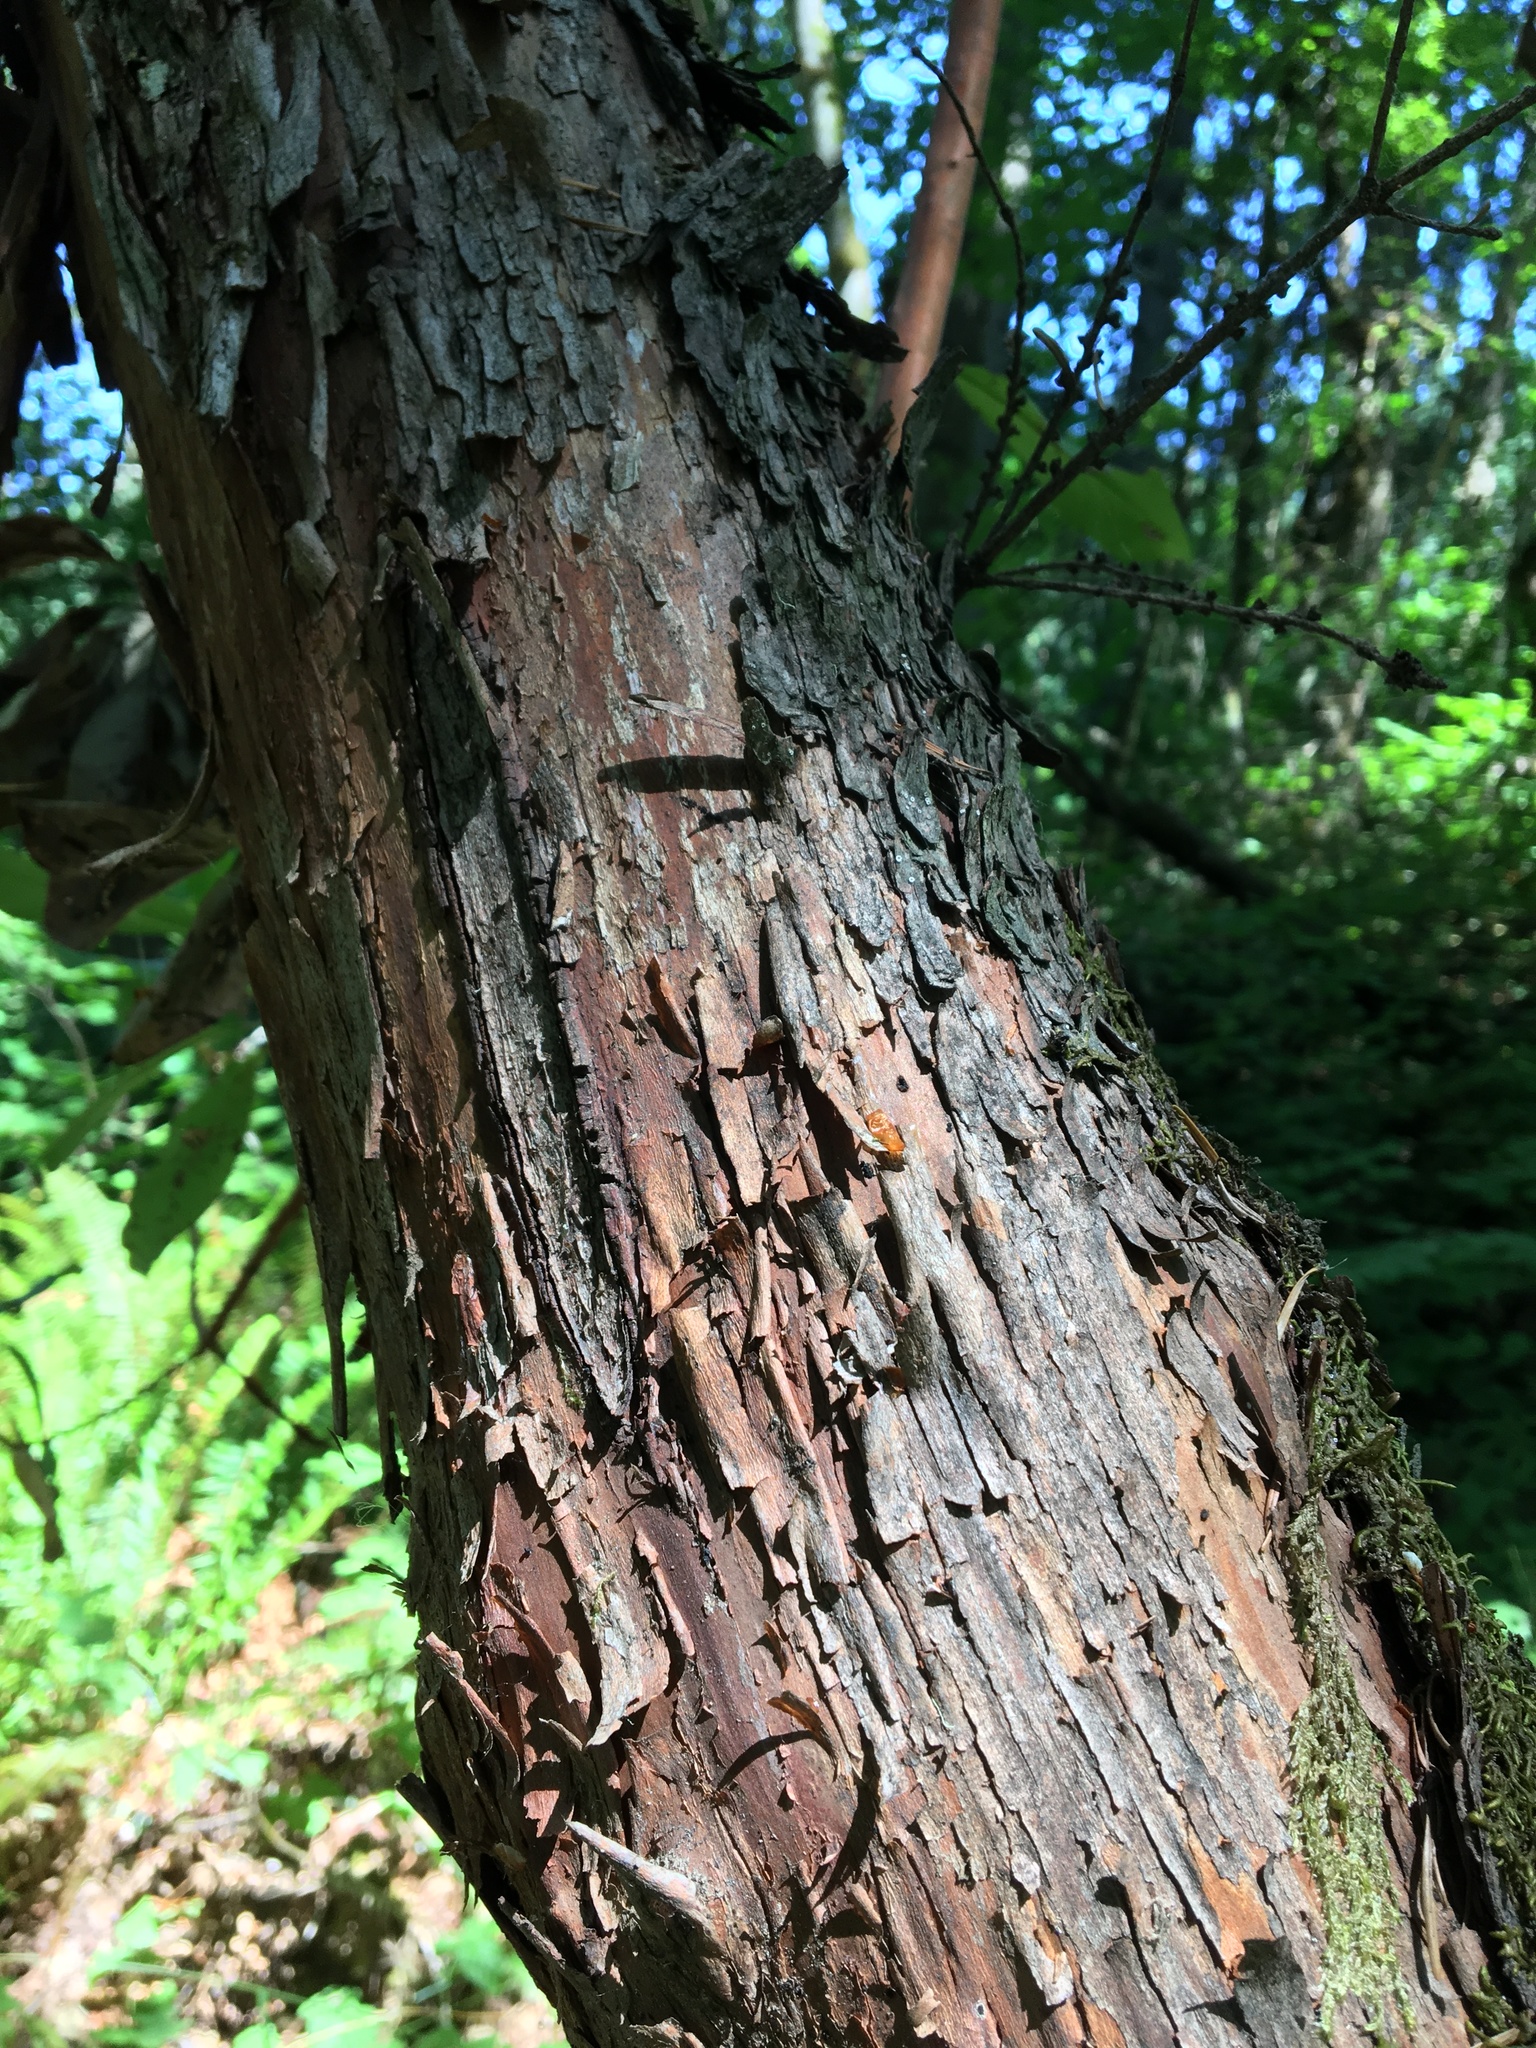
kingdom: Plantae
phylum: Tracheophyta
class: Magnoliopsida
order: Ericales
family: Ericaceae
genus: Arbutus
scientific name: Arbutus menziesii
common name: Pacific madrone
